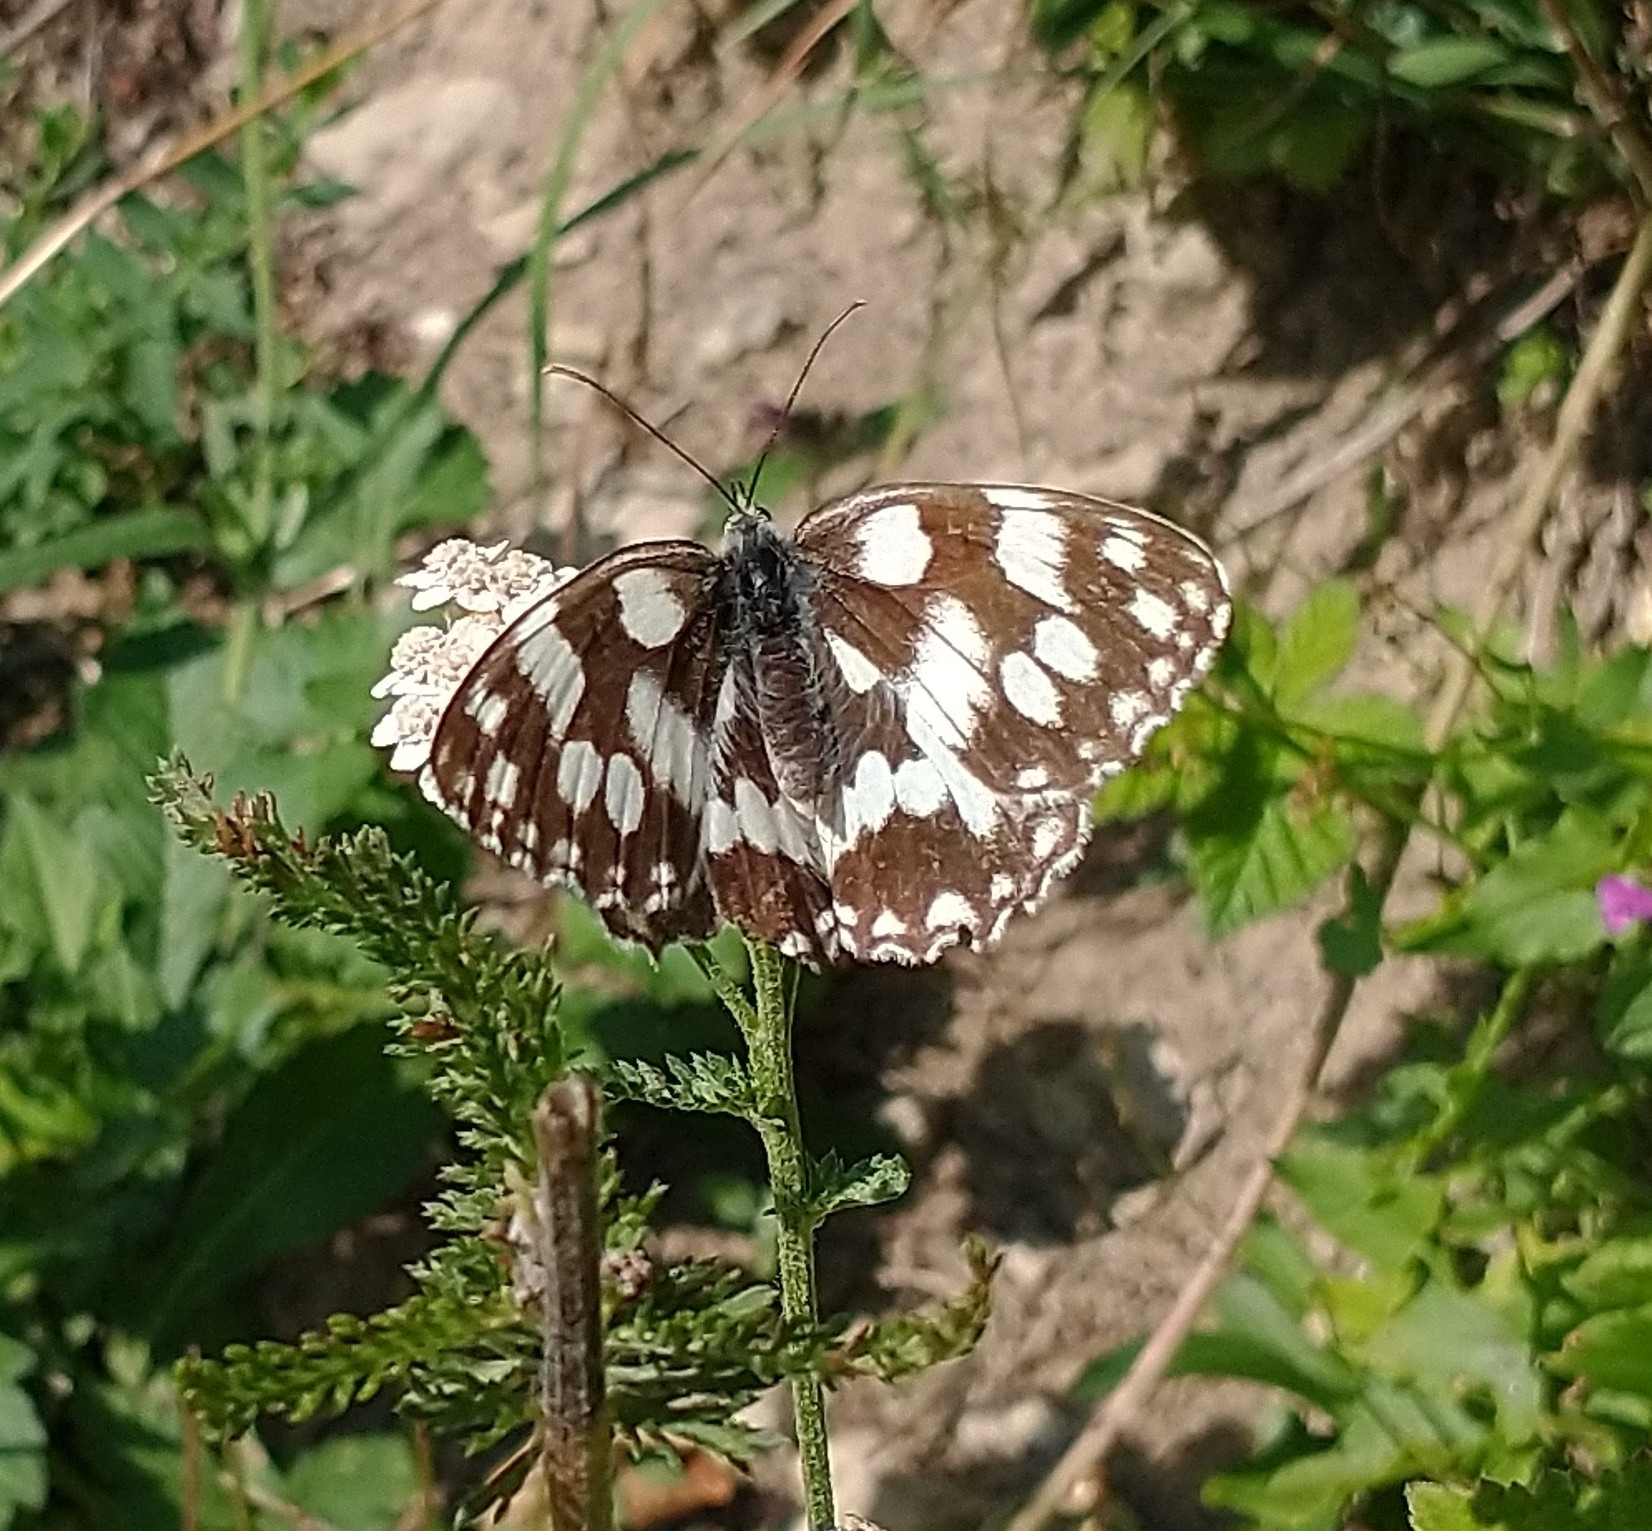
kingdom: Animalia
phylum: Arthropoda
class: Insecta
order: Lepidoptera
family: Nymphalidae
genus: Melanargia
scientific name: Melanargia galathea
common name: Marbled white
